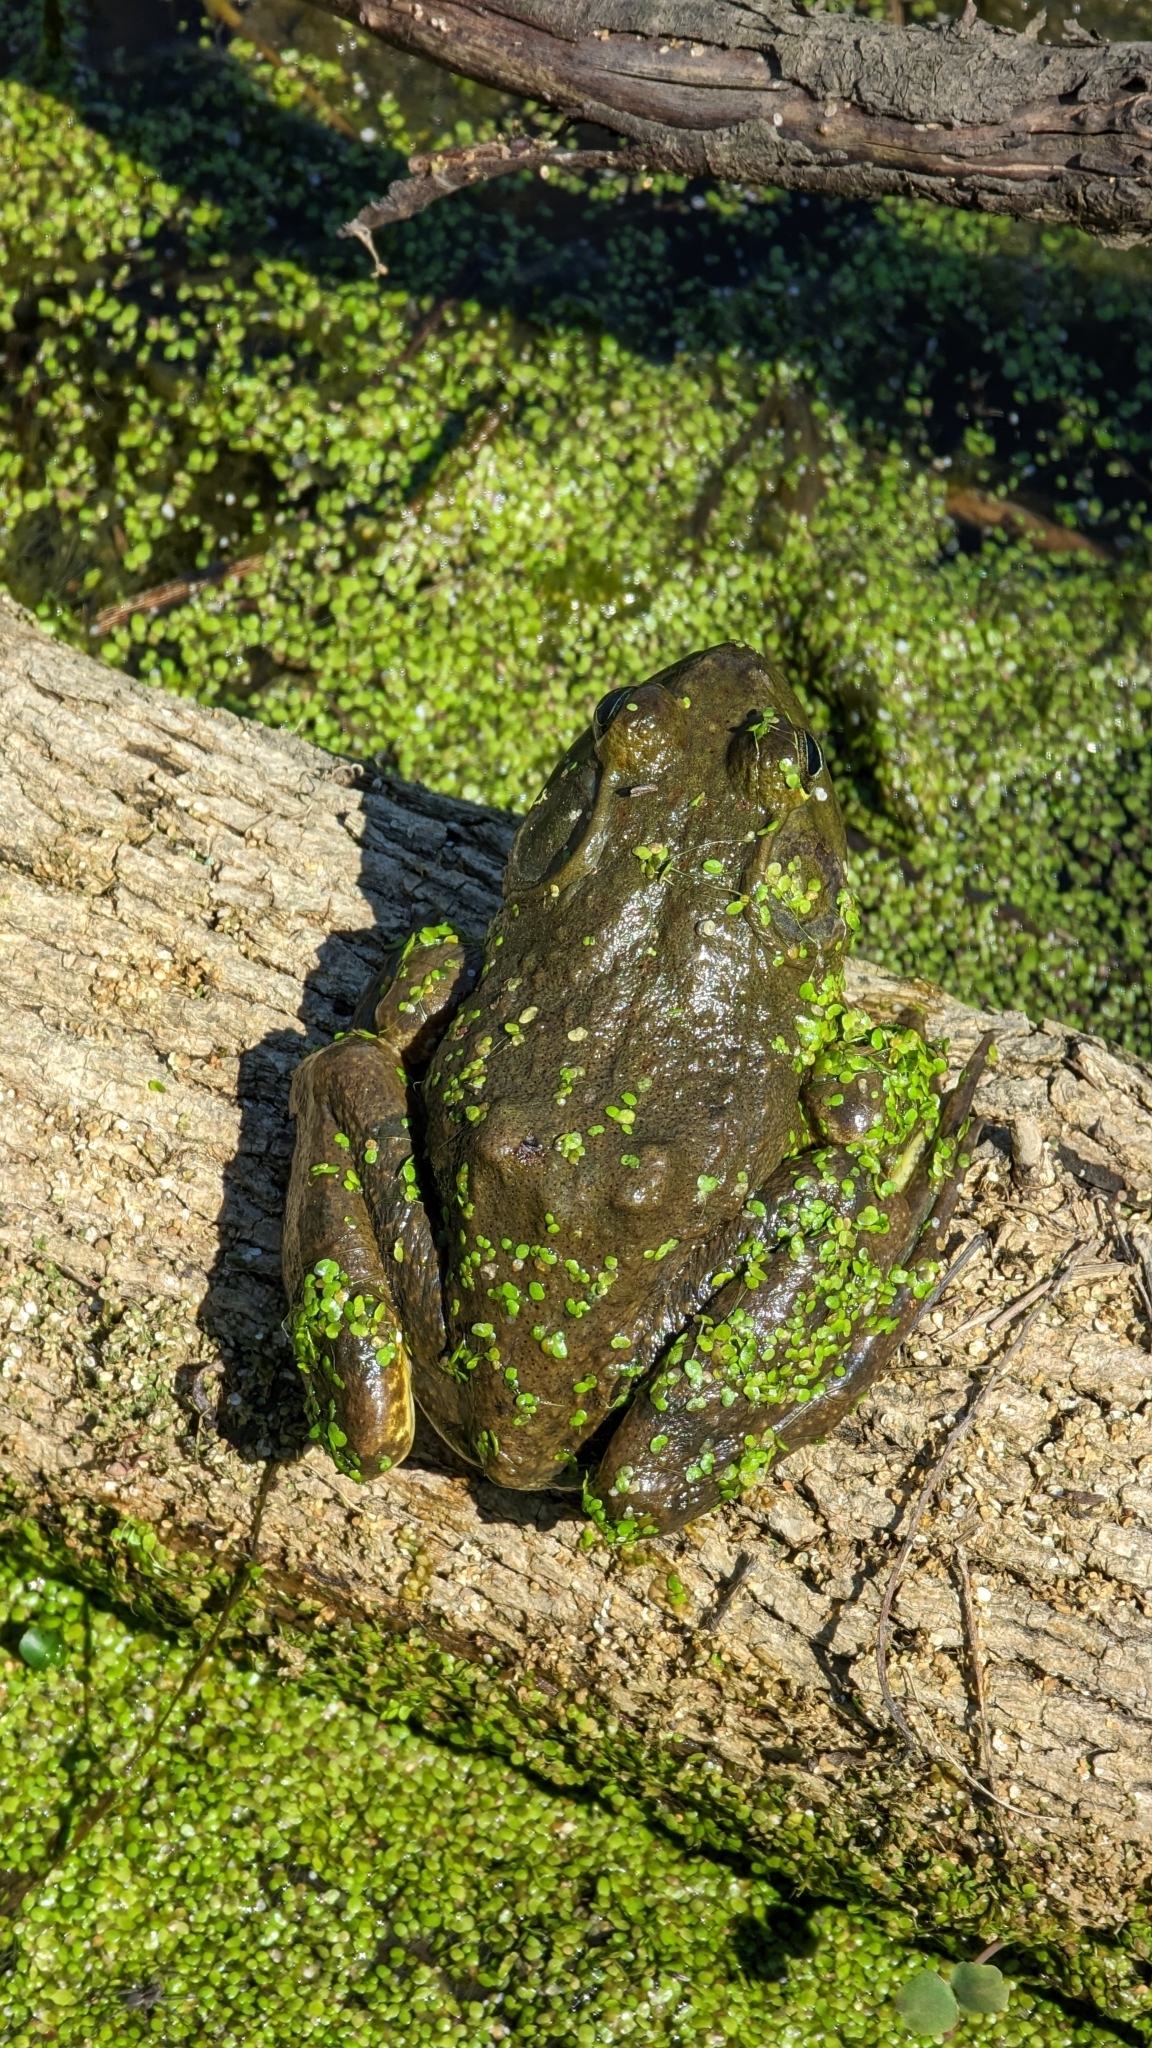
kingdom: Animalia
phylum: Chordata
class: Amphibia
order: Anura
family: Ranidae
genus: Lithobates
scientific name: Lithobates catesbeianus
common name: American bullfrog
